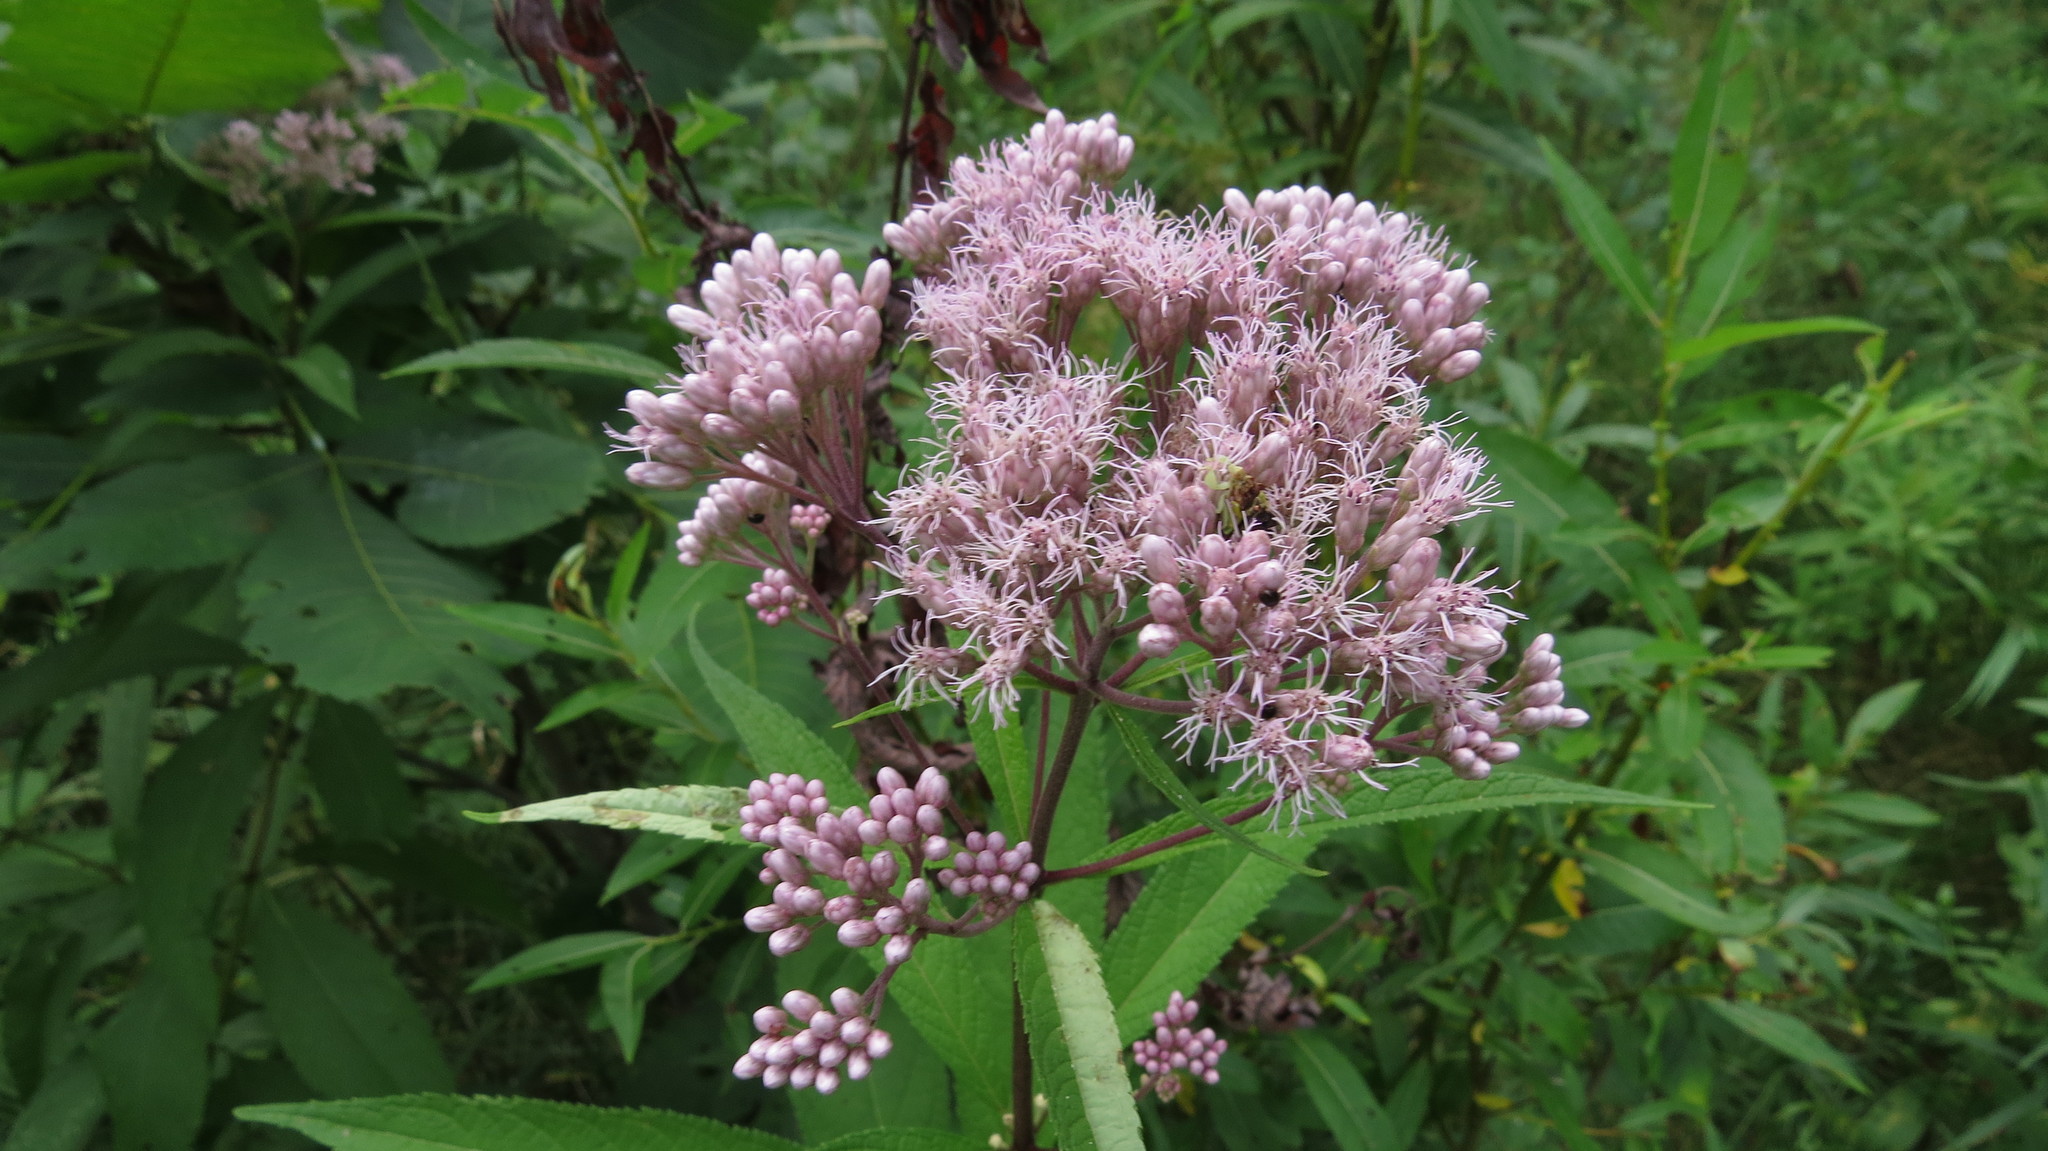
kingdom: Plantae
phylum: Tracheophyta
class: Magnoliopsida
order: Asterales
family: Asteraceae
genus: Eutrochium
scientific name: Eutrochium maculatum
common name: Spotted joe pye weed
